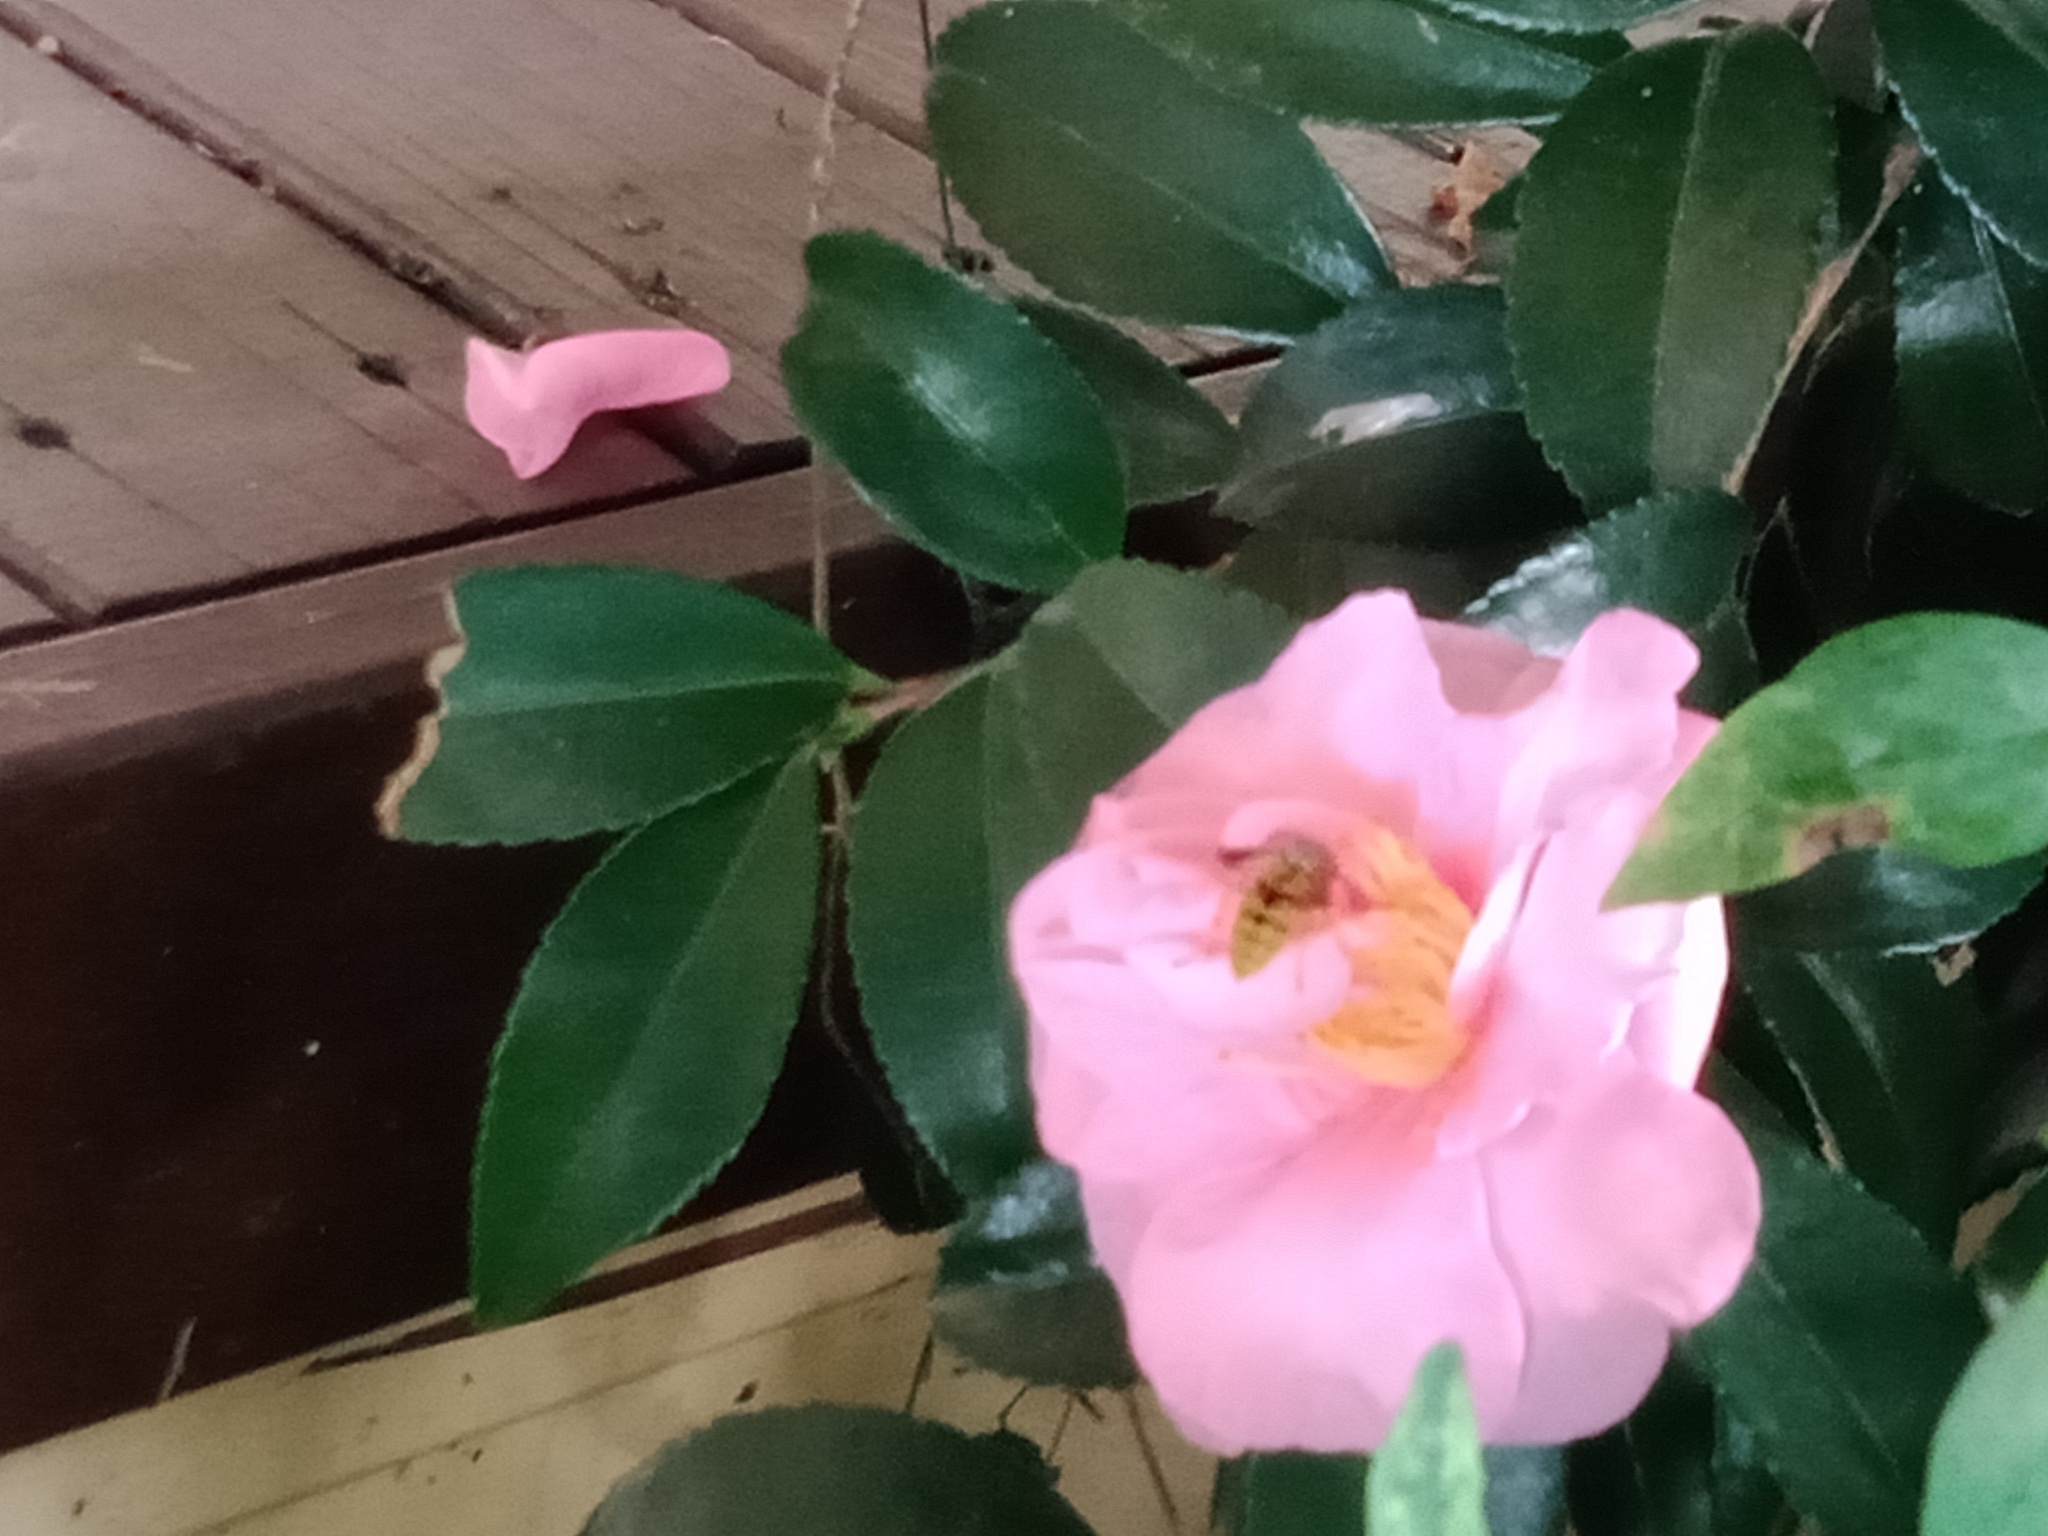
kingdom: Animalia
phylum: Arthropoda
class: Insecta
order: Hymenoptera
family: Vespidae
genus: Vespula
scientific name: Vespula germanica
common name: German wasp
